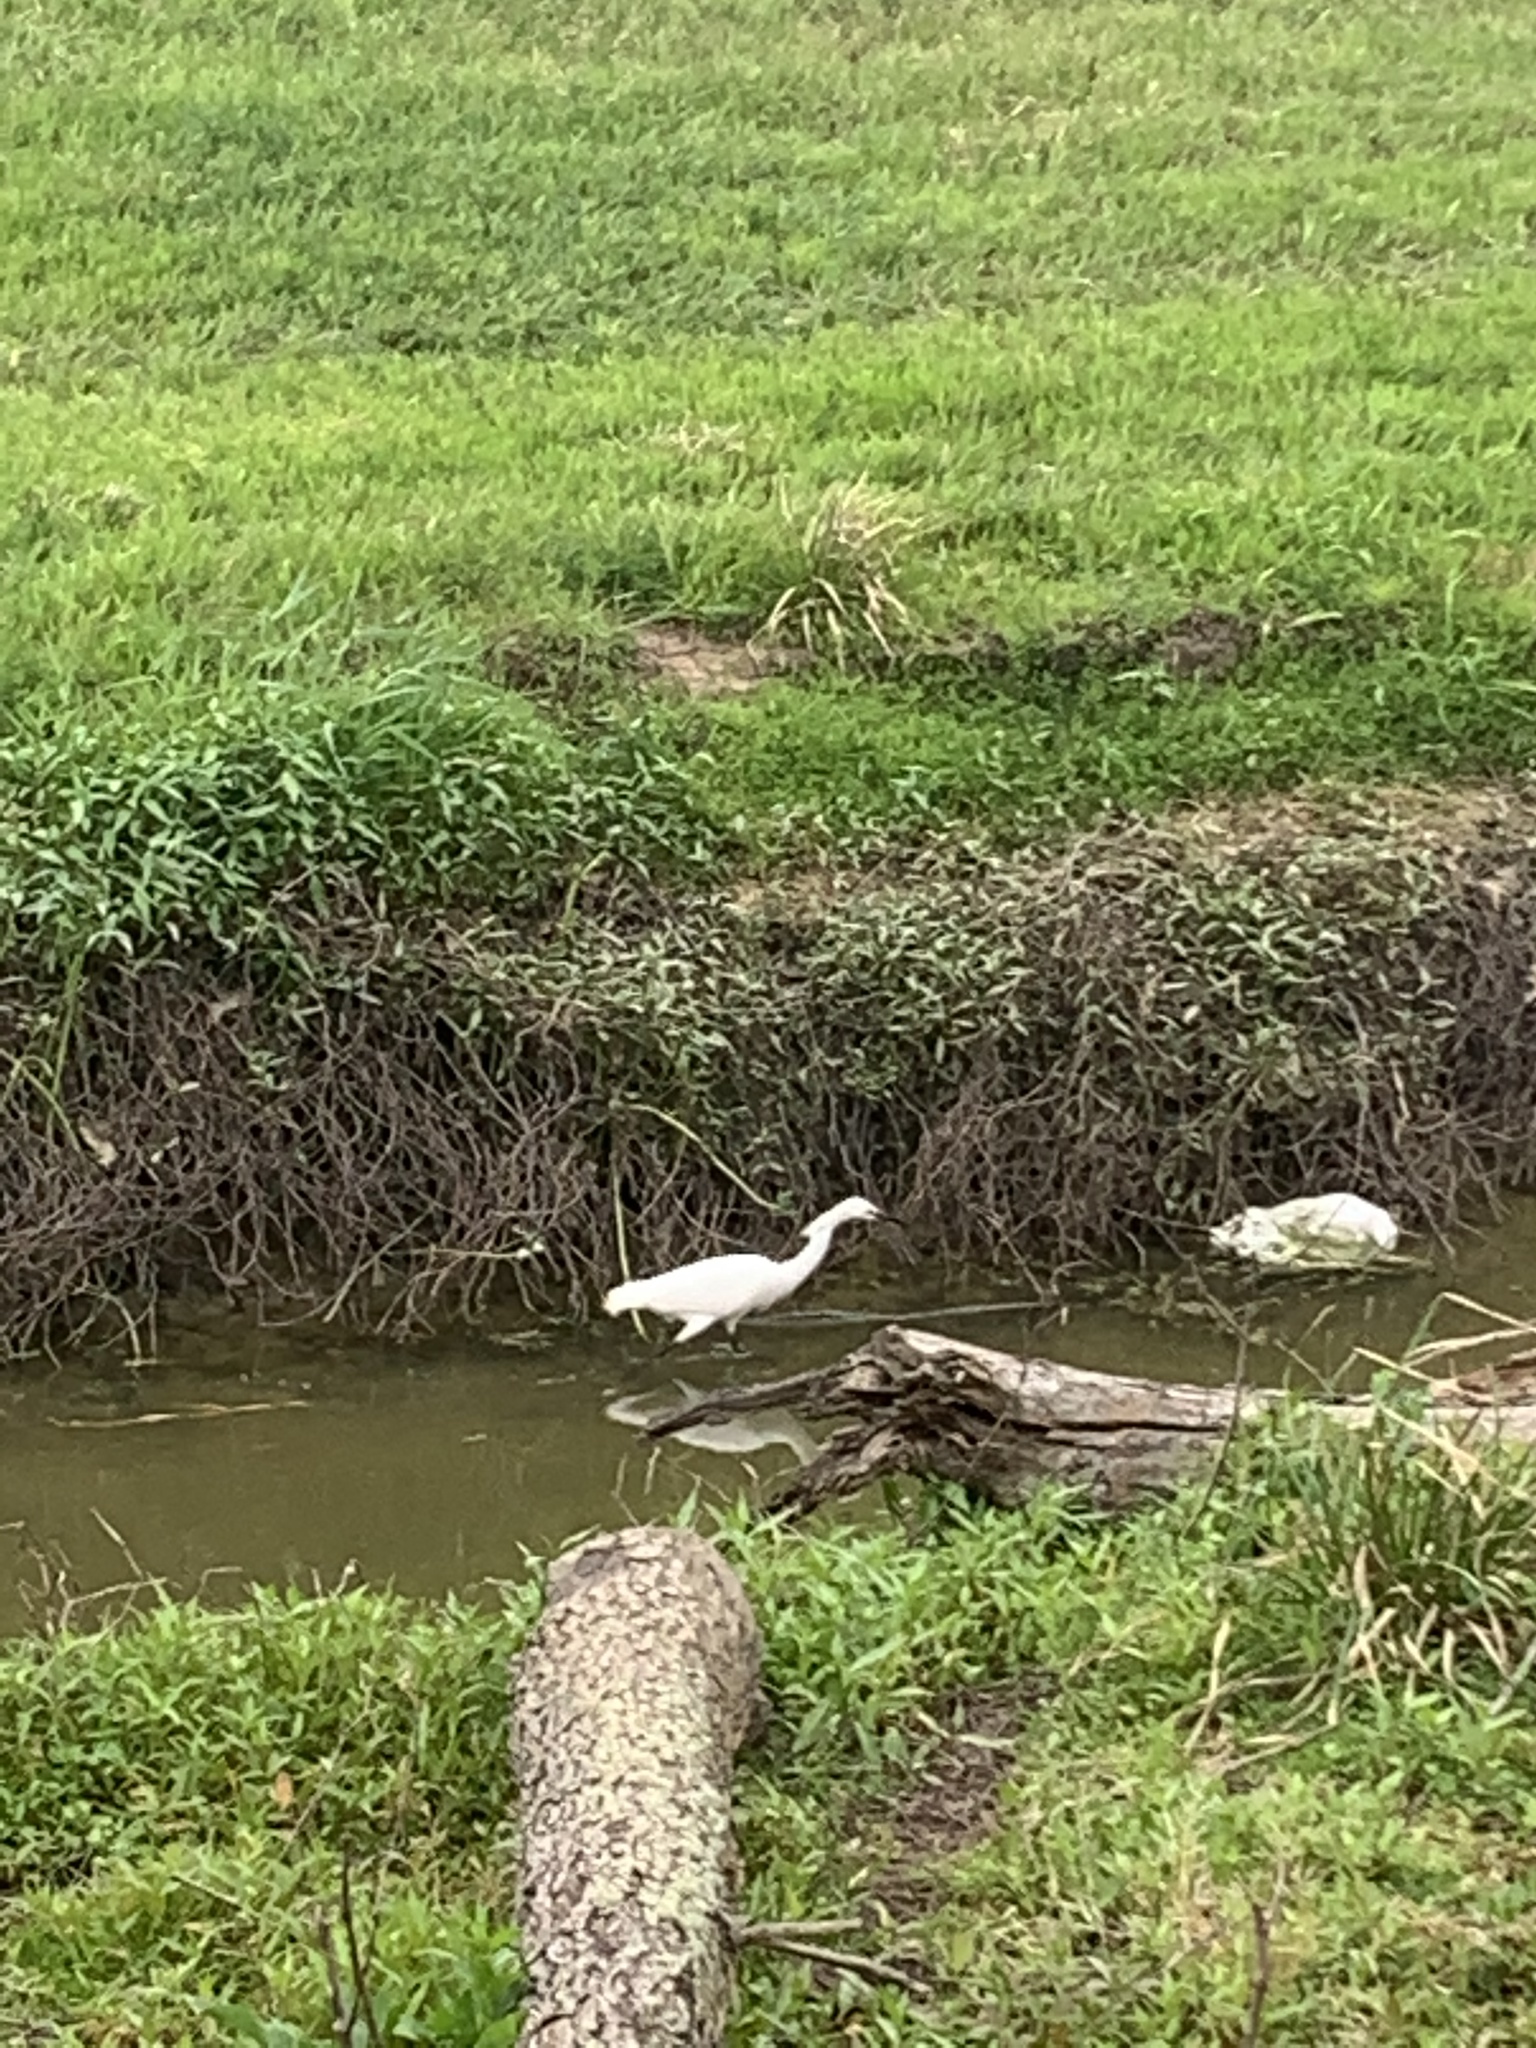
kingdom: Animalia
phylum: Chordata
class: Aves
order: Pelecaniformes
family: Ardeidae
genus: Egretta
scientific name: Egretta thula
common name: Snowy egret
